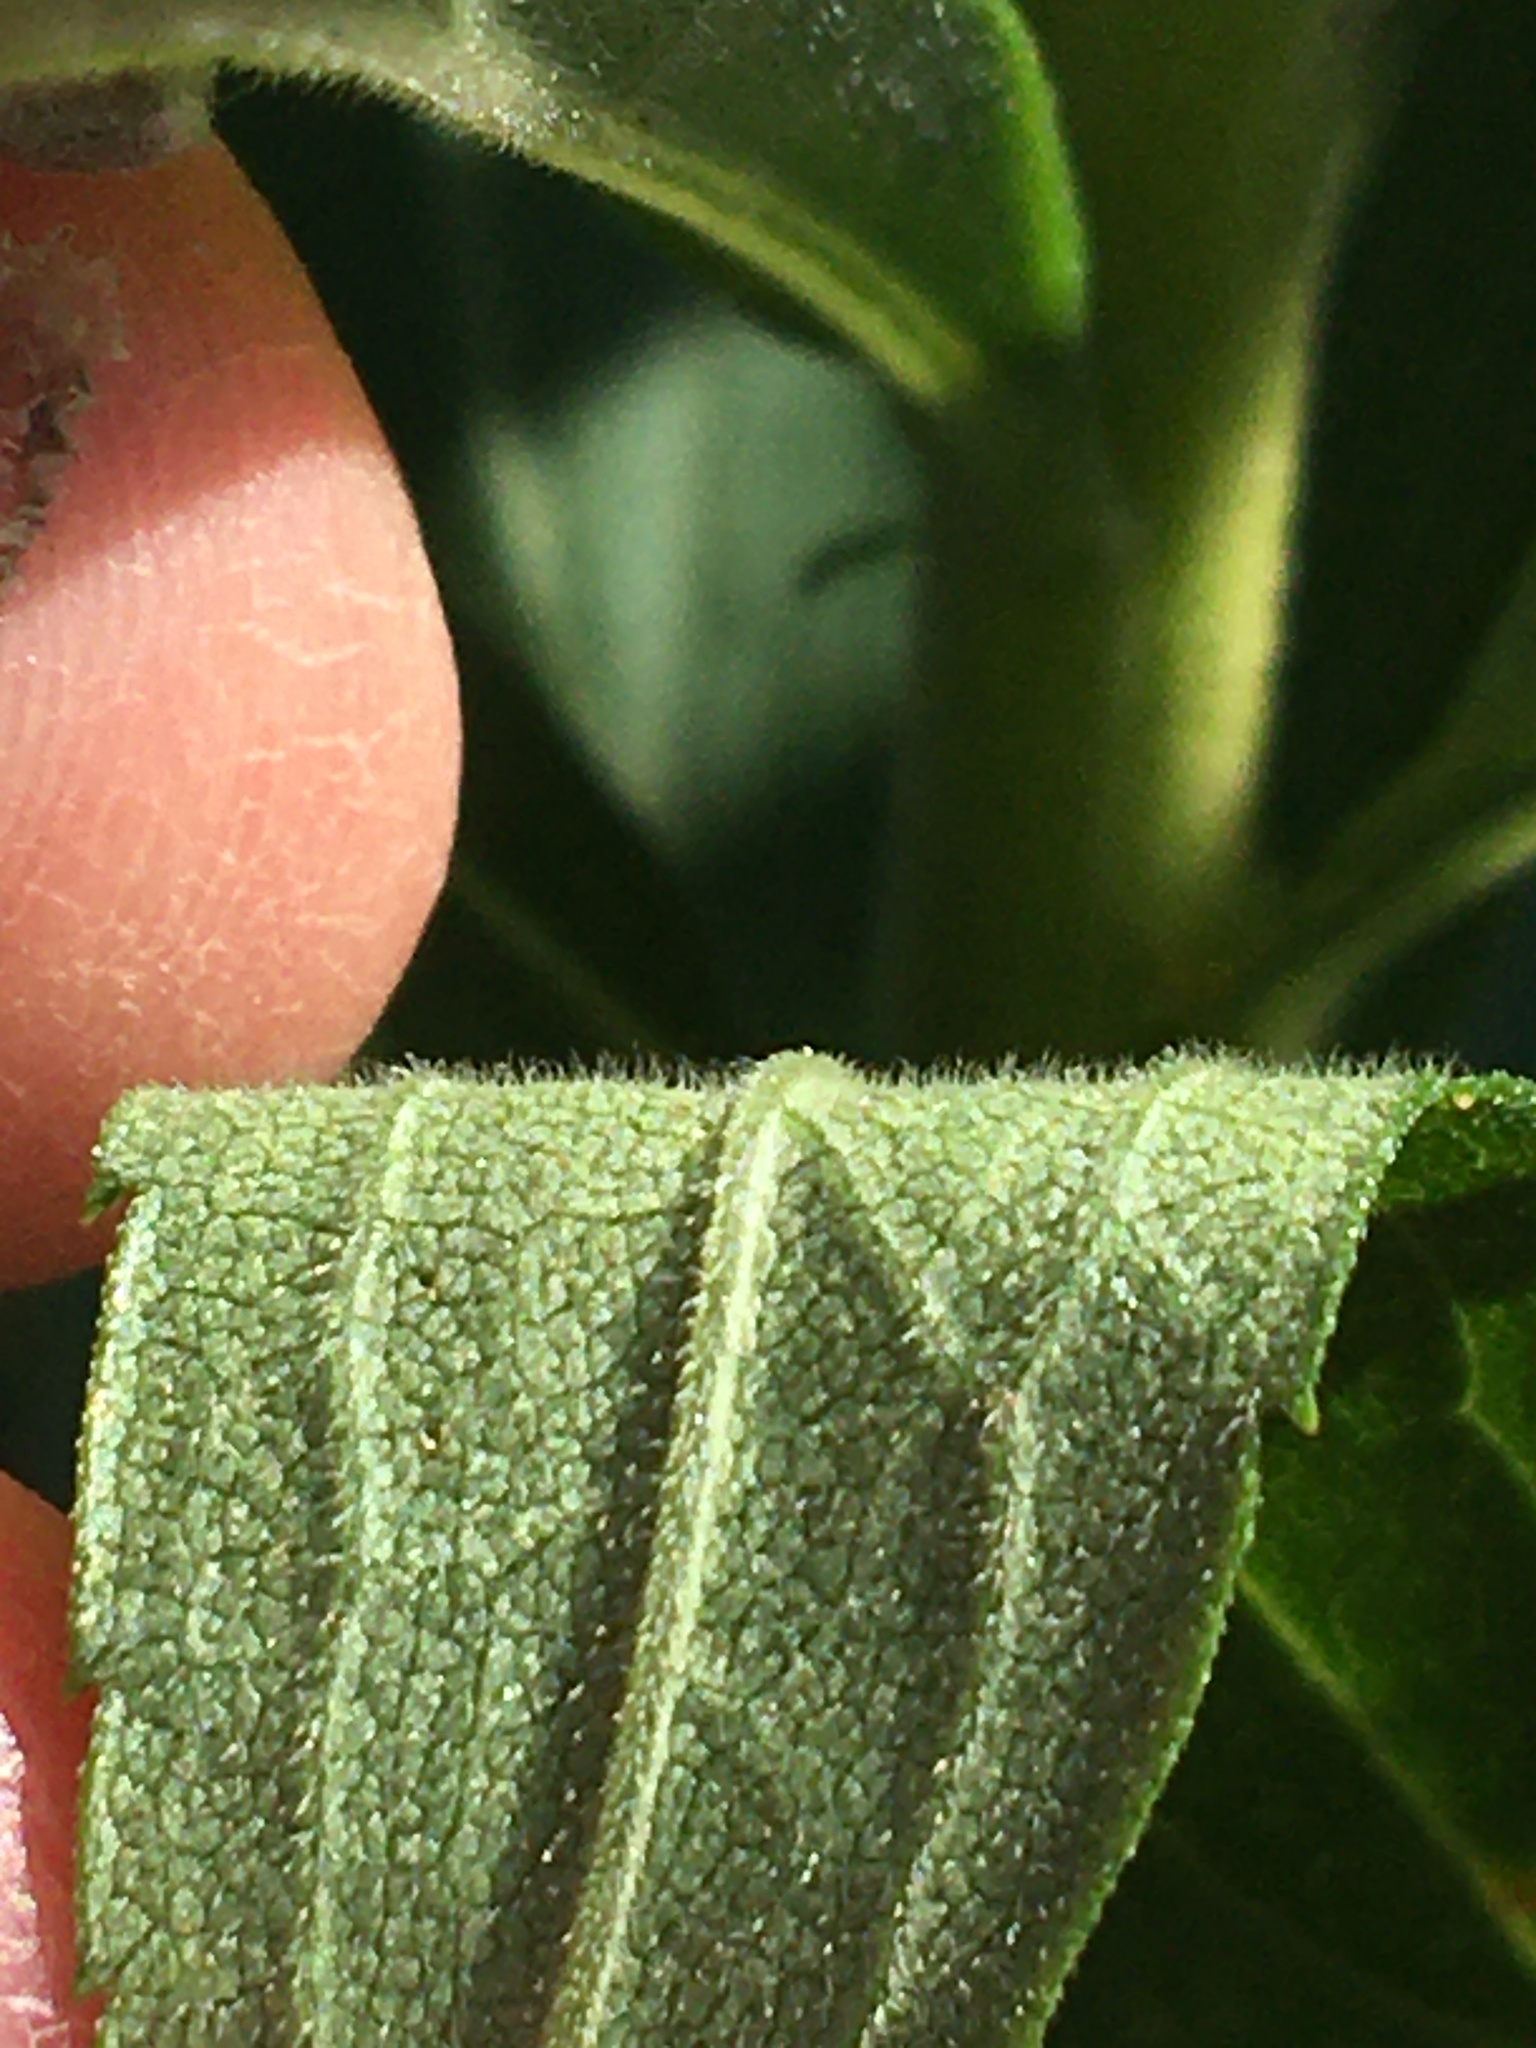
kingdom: Plantae
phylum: Tracheophyta
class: Magnoliopsida
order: Asterales
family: Asteraceae
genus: Solidago
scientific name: Solidago altissima
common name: Late goldenrod
